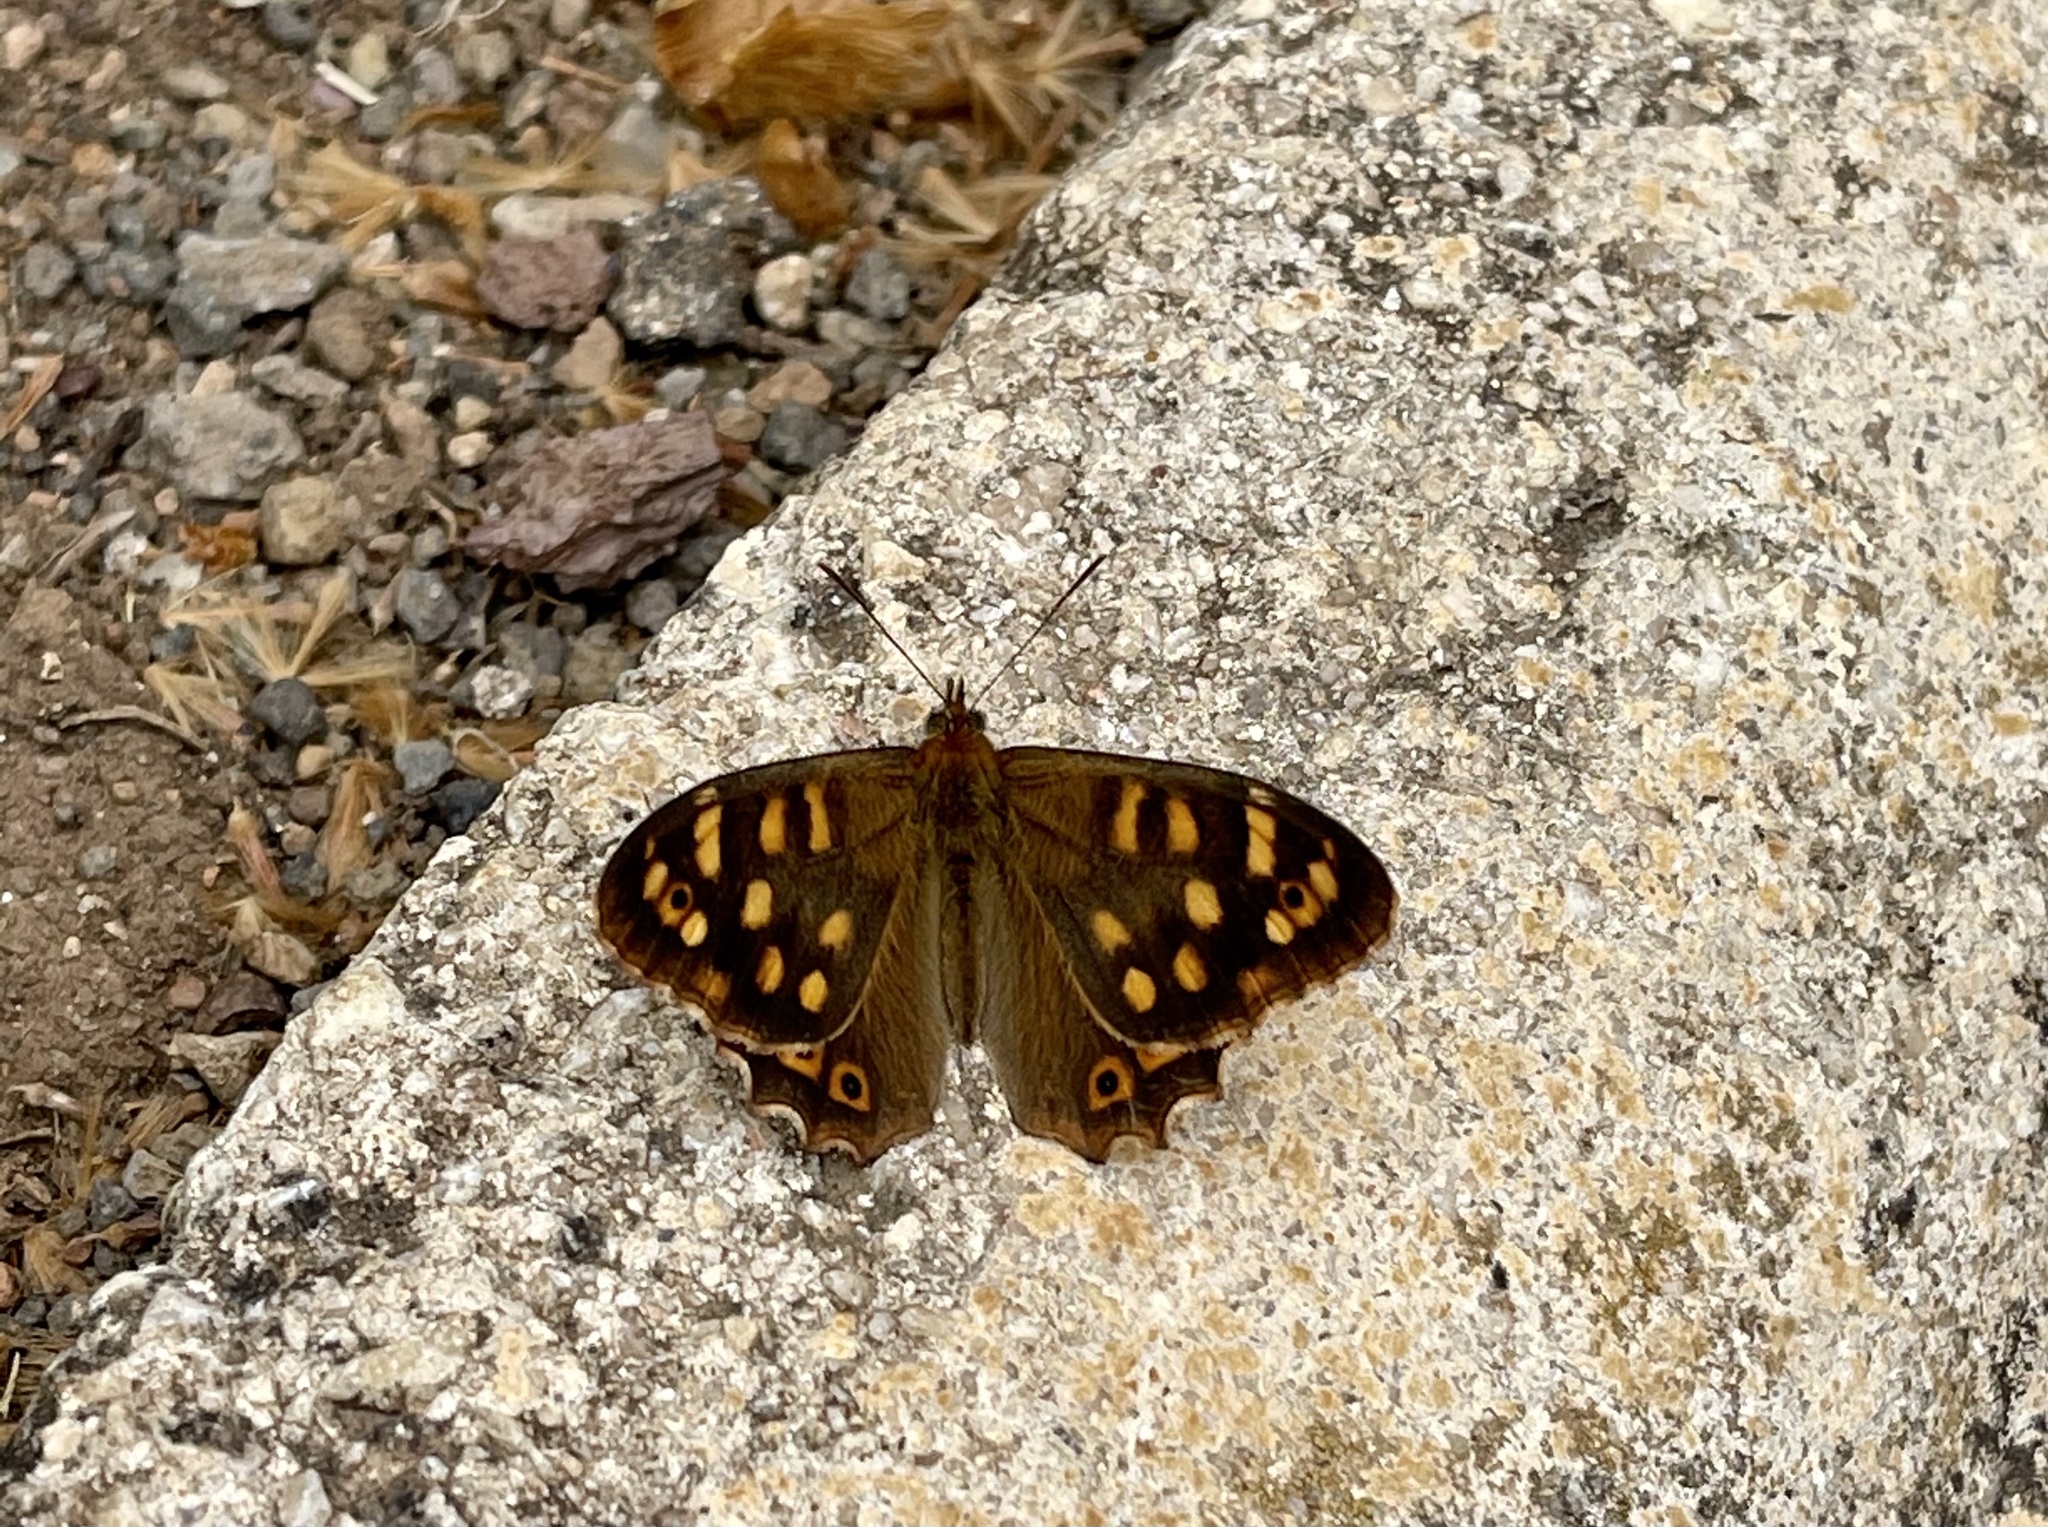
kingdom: Animalia
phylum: Arthropoda
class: Insecta
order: Lepidoptera
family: Nymphalidae
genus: Pararge
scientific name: Pararge aegeria
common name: Speckled wood
